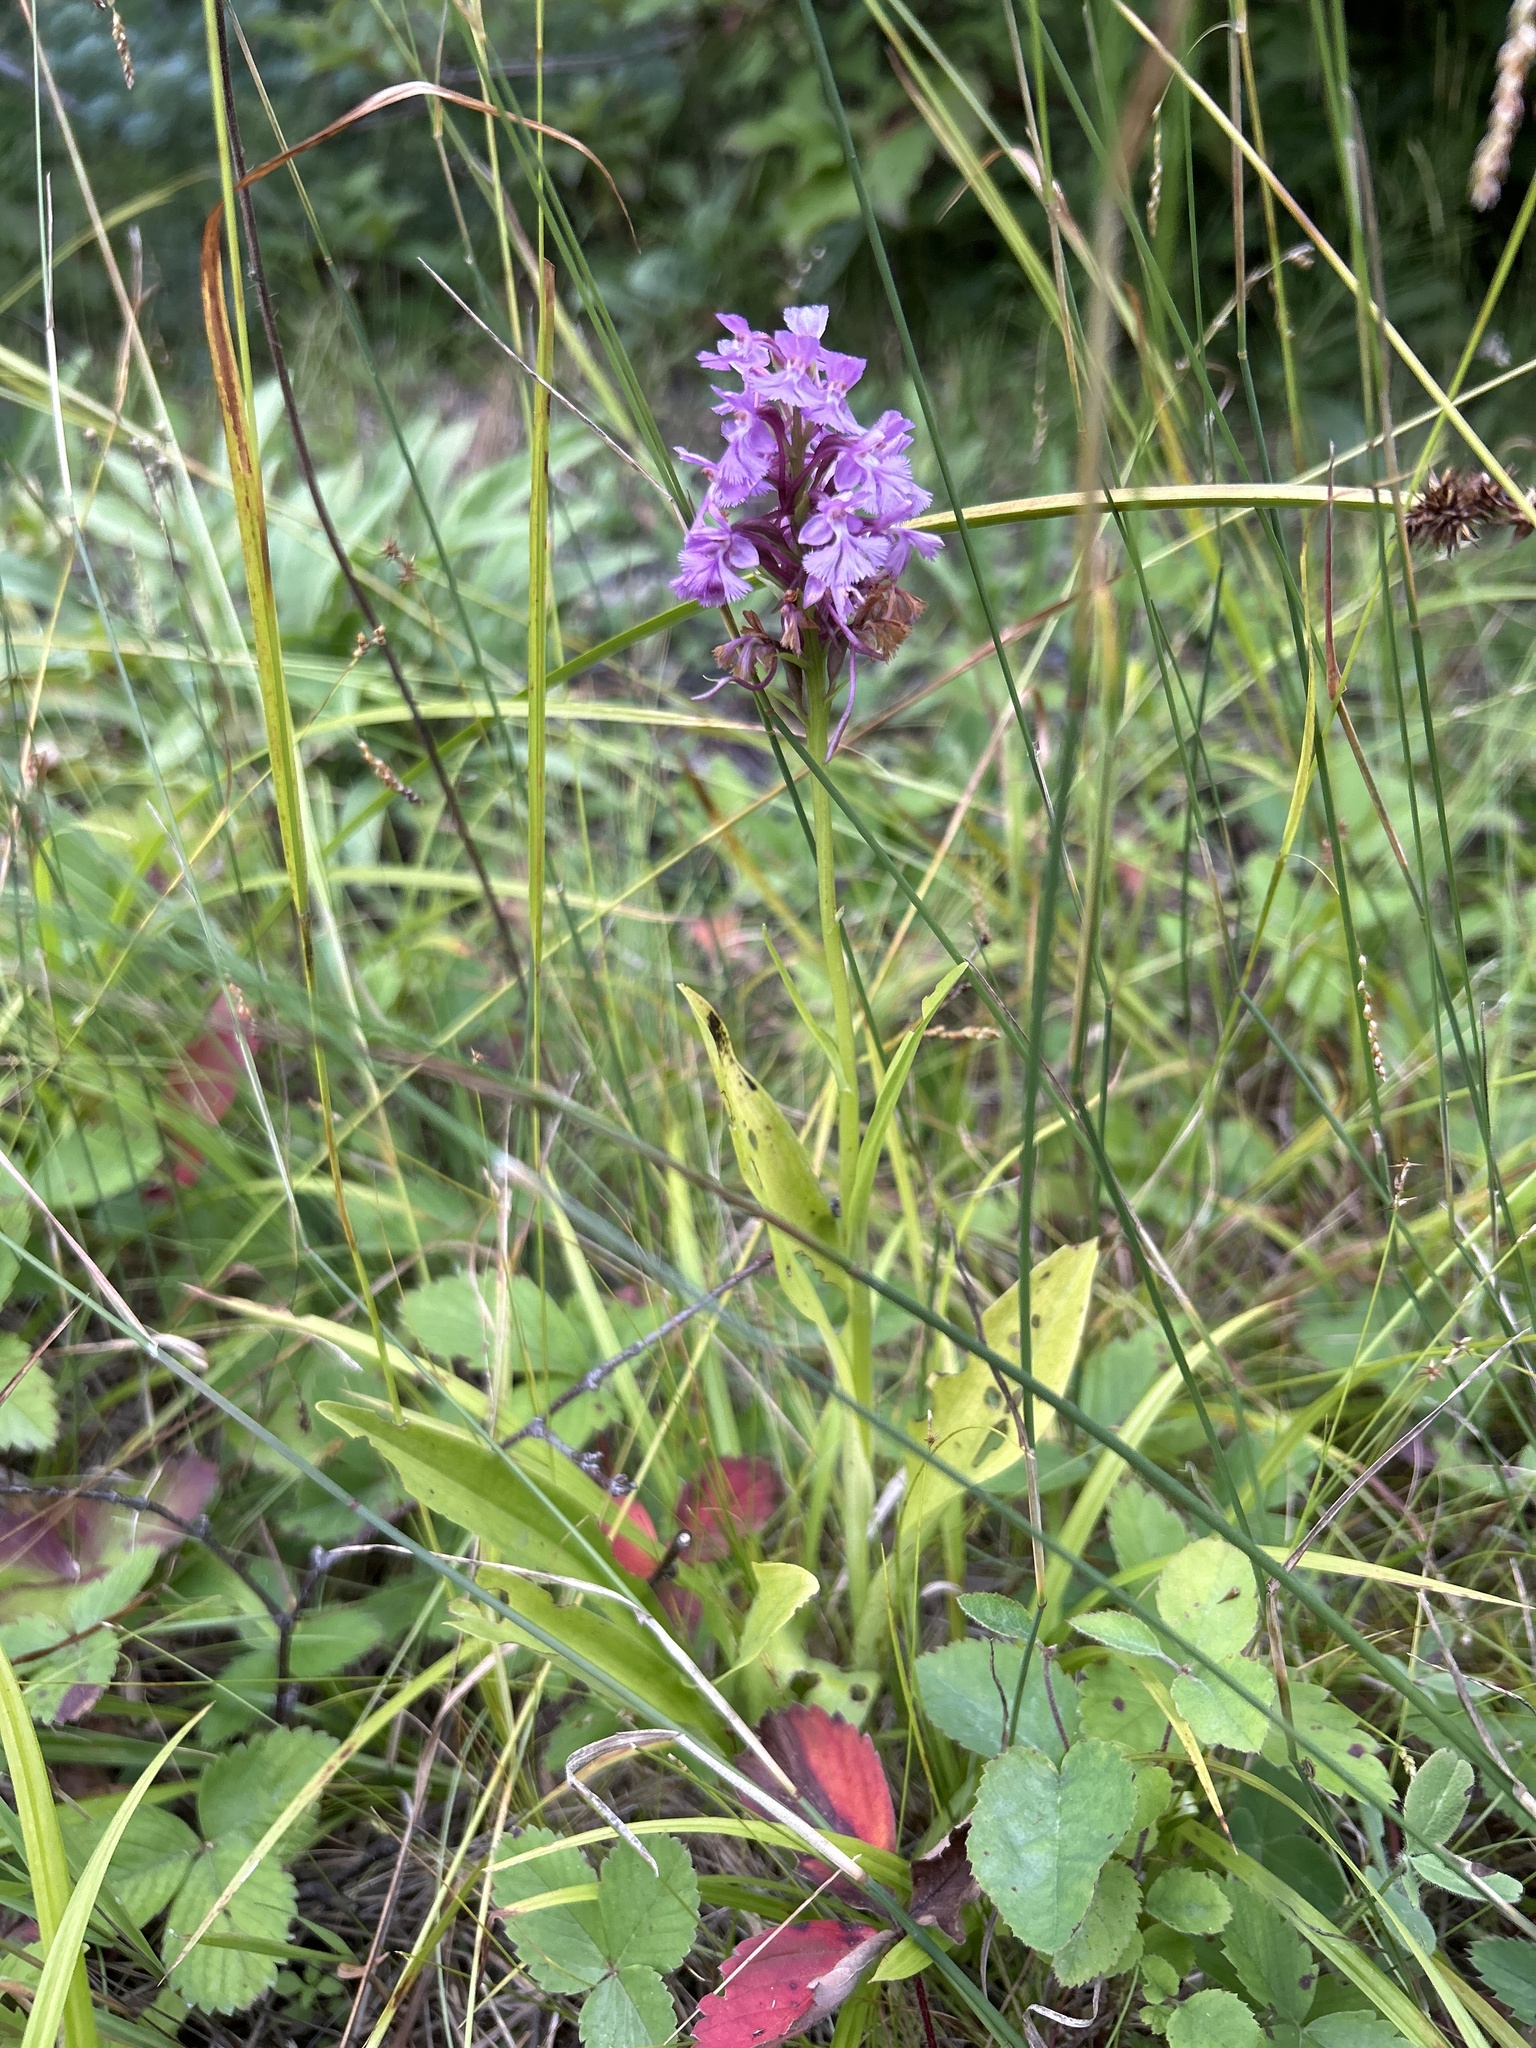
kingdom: Plantae
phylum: Tracheophyta
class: Liliopsida
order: Asparagales
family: Orchidaceae
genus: Platanthera
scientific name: Platanthera psycodes
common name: Lesser purple fringed orchid
